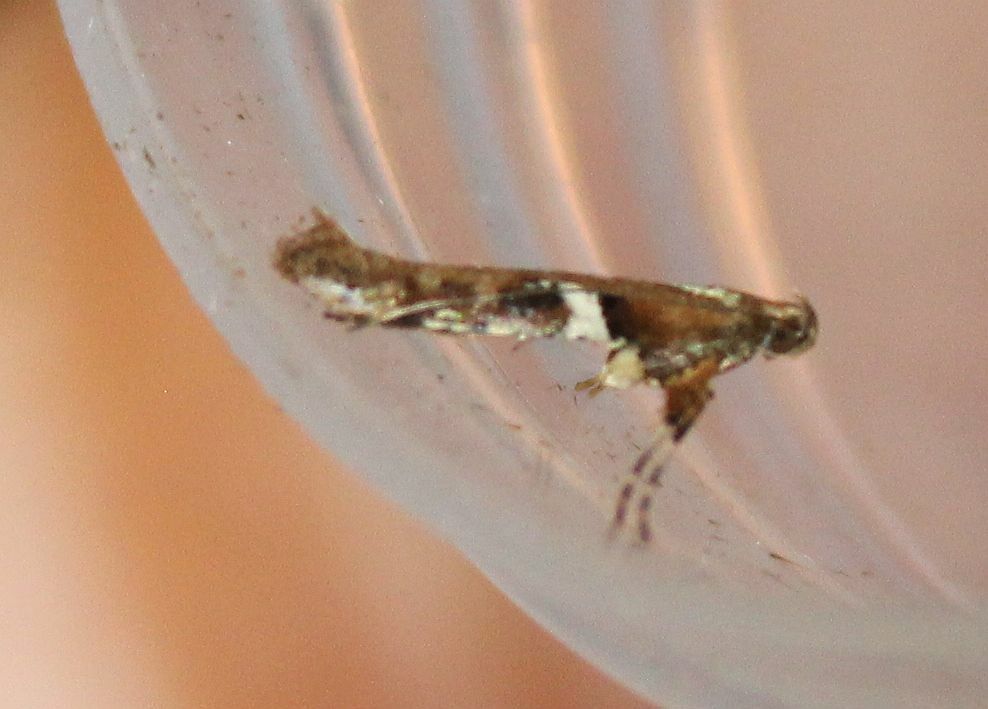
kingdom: Animalia
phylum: Arthropoda
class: Insecta
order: Lepidoptera
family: Gracillariidae
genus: Caloptilia
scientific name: Caloptilia semifascia
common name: Maple slender
